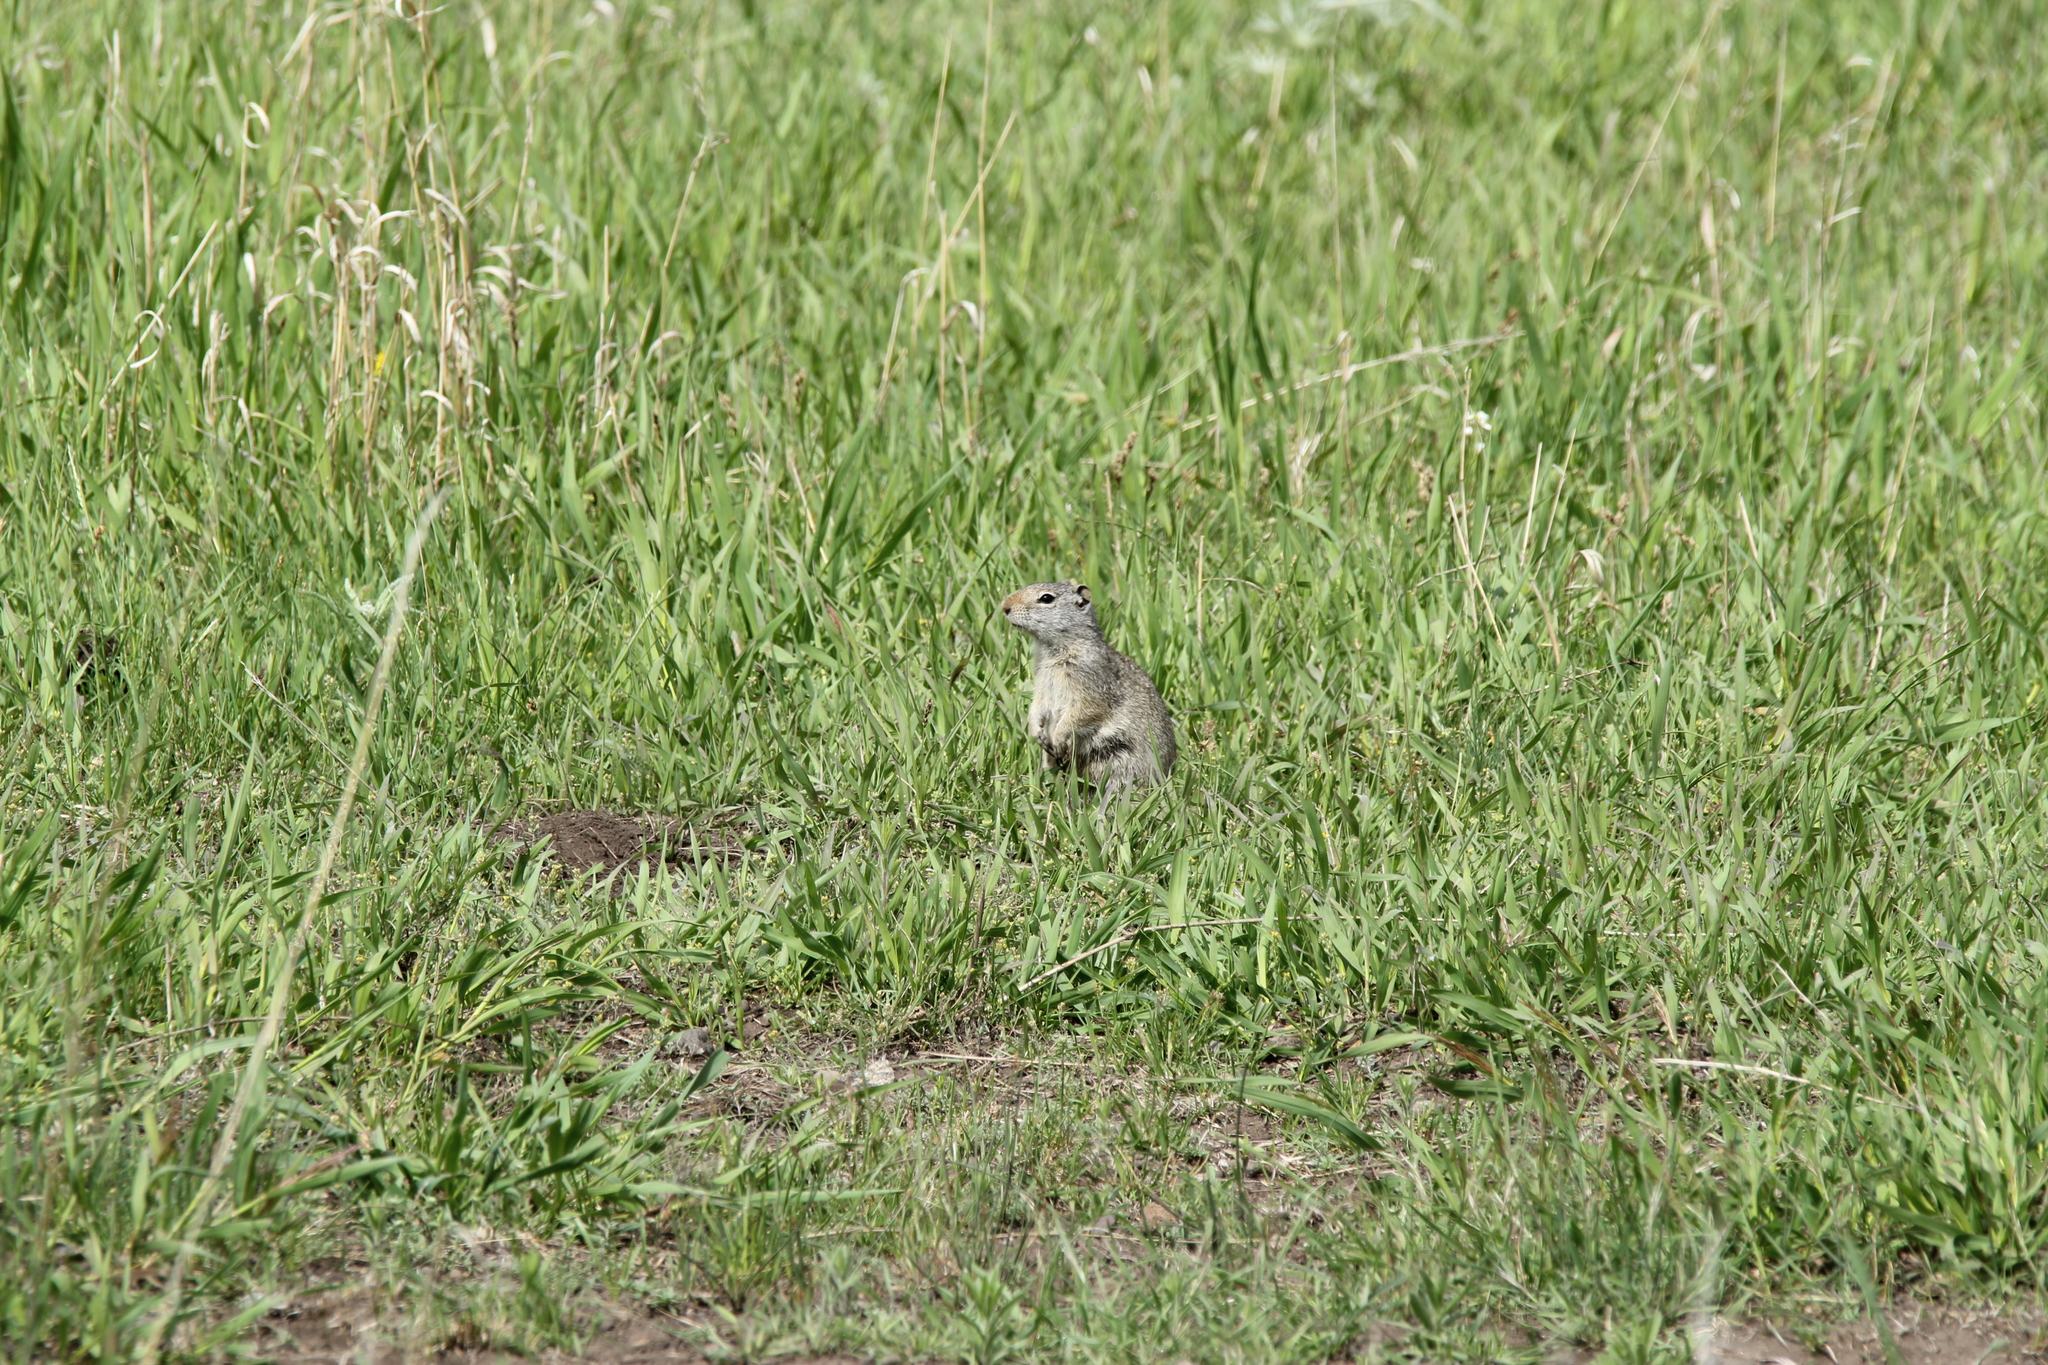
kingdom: Animalia
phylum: Chordata
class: Mammalia
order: Rodentia
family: Sciuridae
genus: Urocitellus
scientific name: Urocitellus armatus
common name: Uinta ground squirrel
